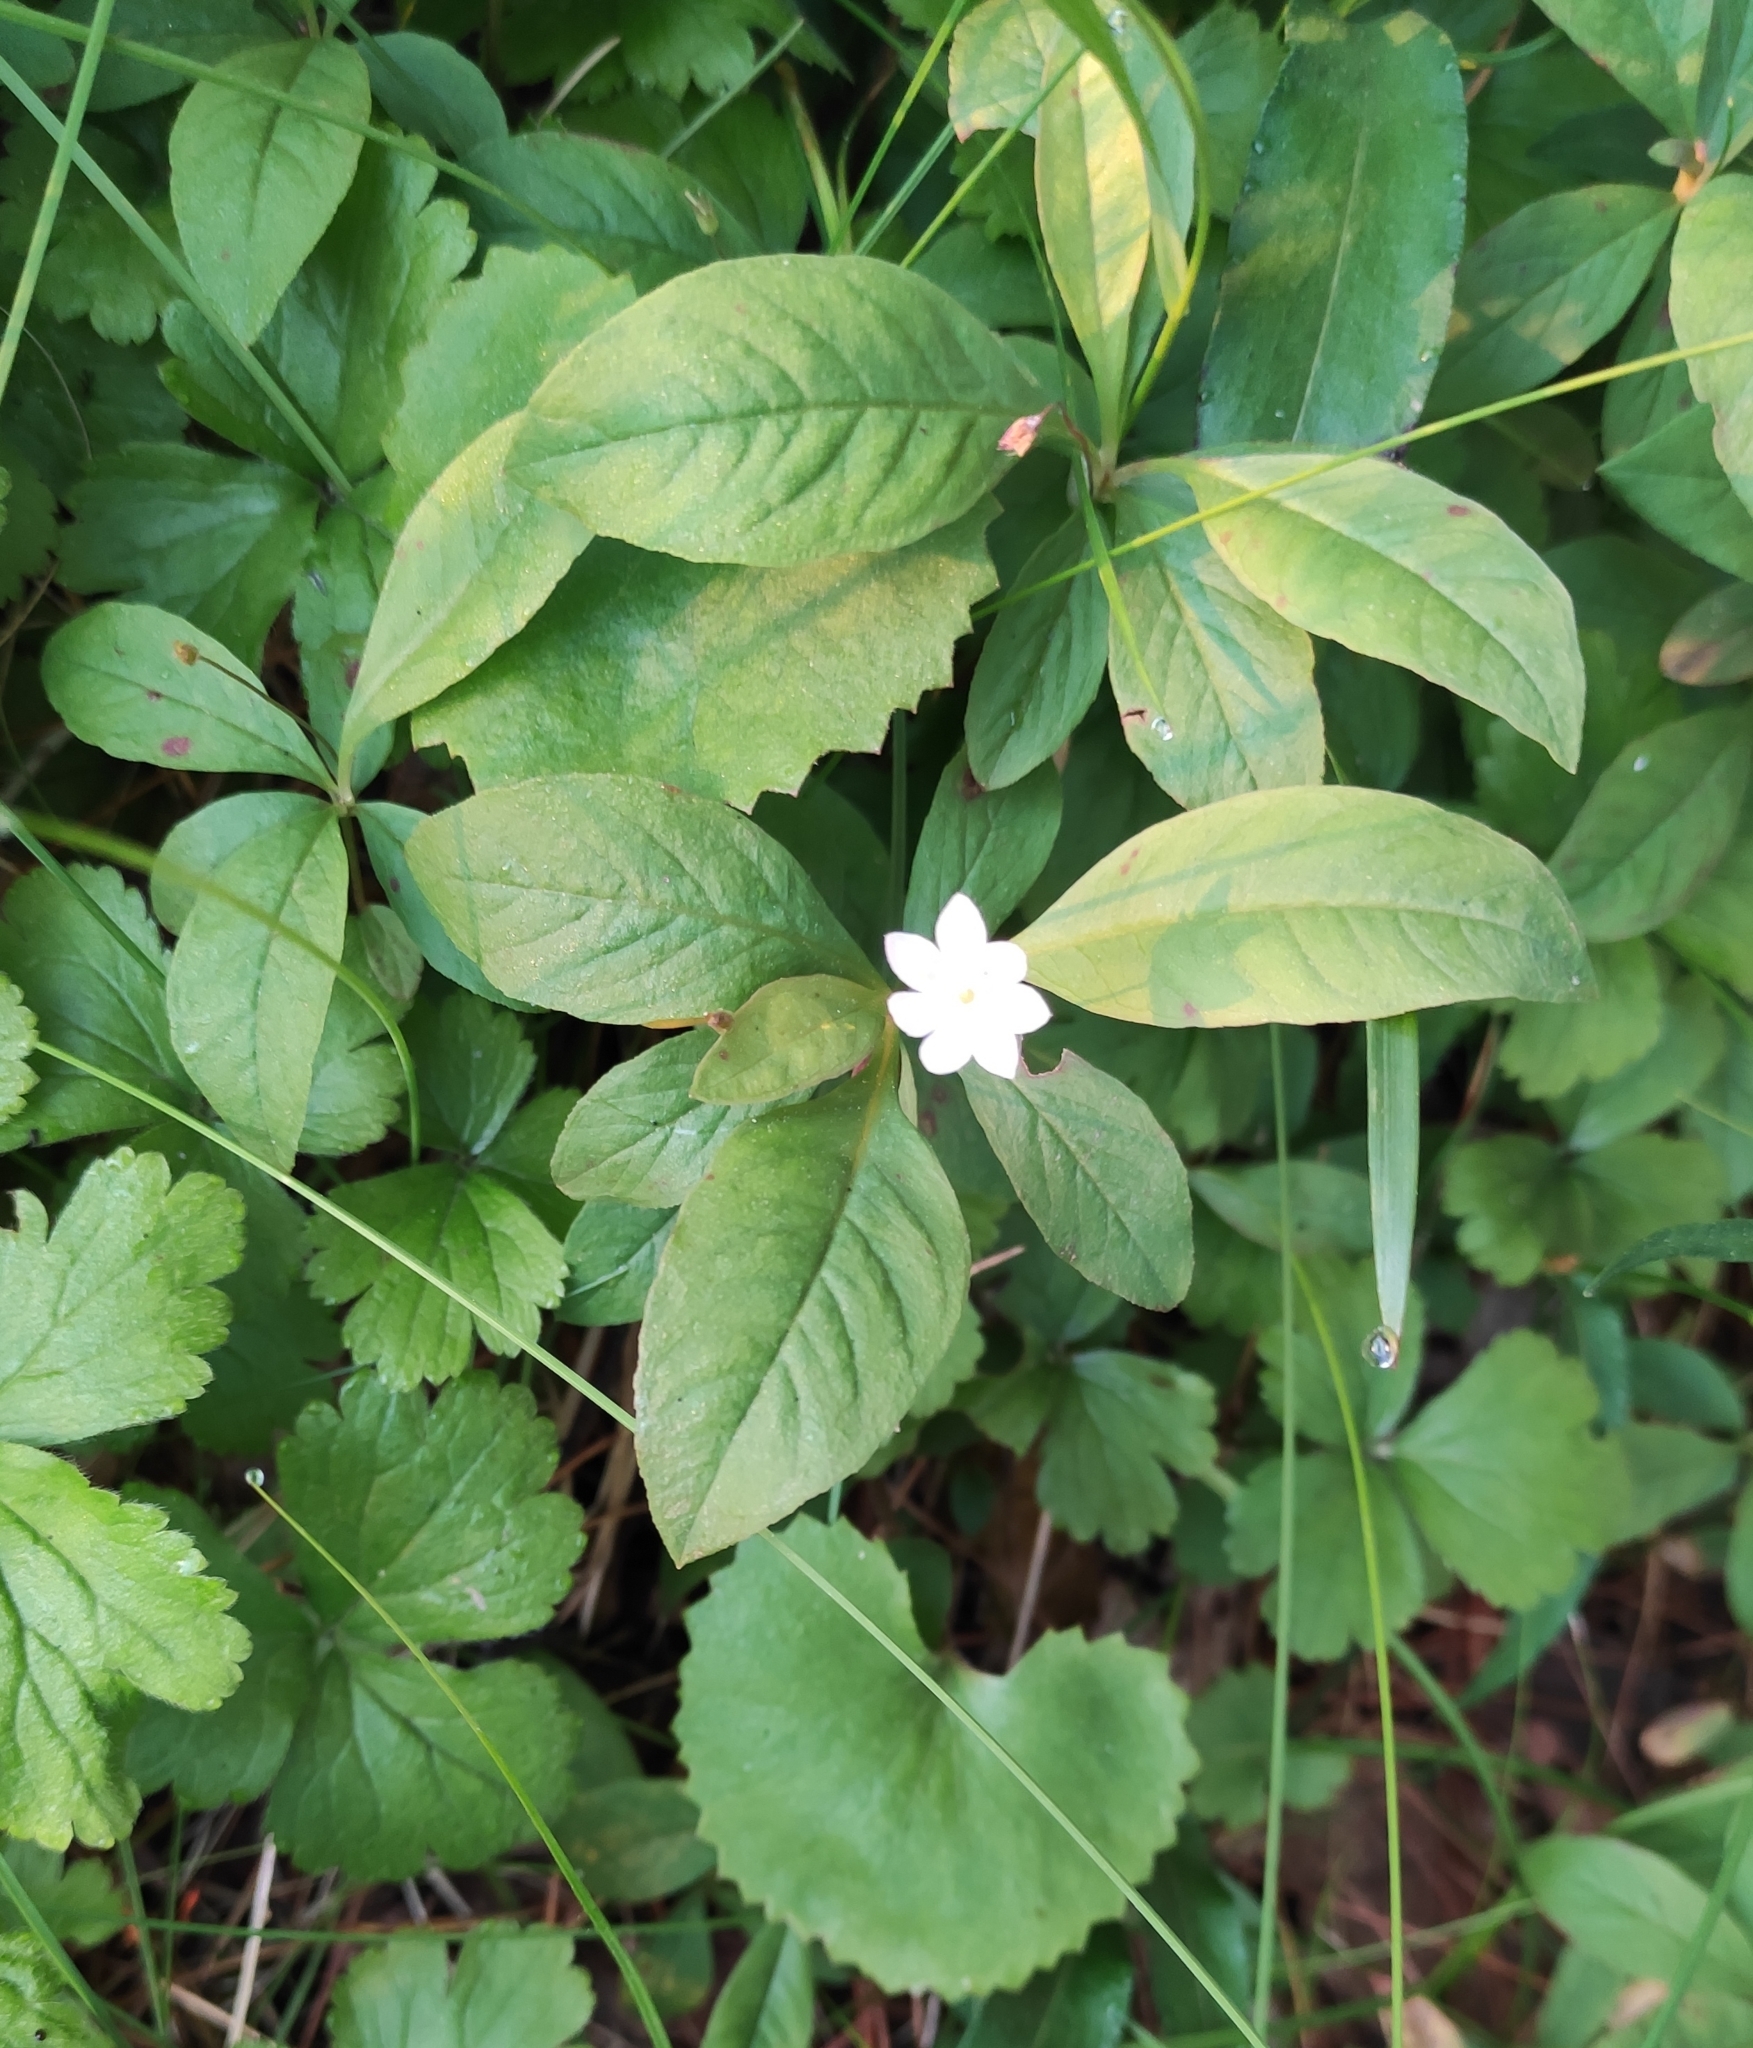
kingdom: Plantae
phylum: Tracheophyta
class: Magnoliopsida
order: Ericales
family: Primulaceae
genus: Lysimachia
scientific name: Lysimachia europaea
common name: Arctic starflower
